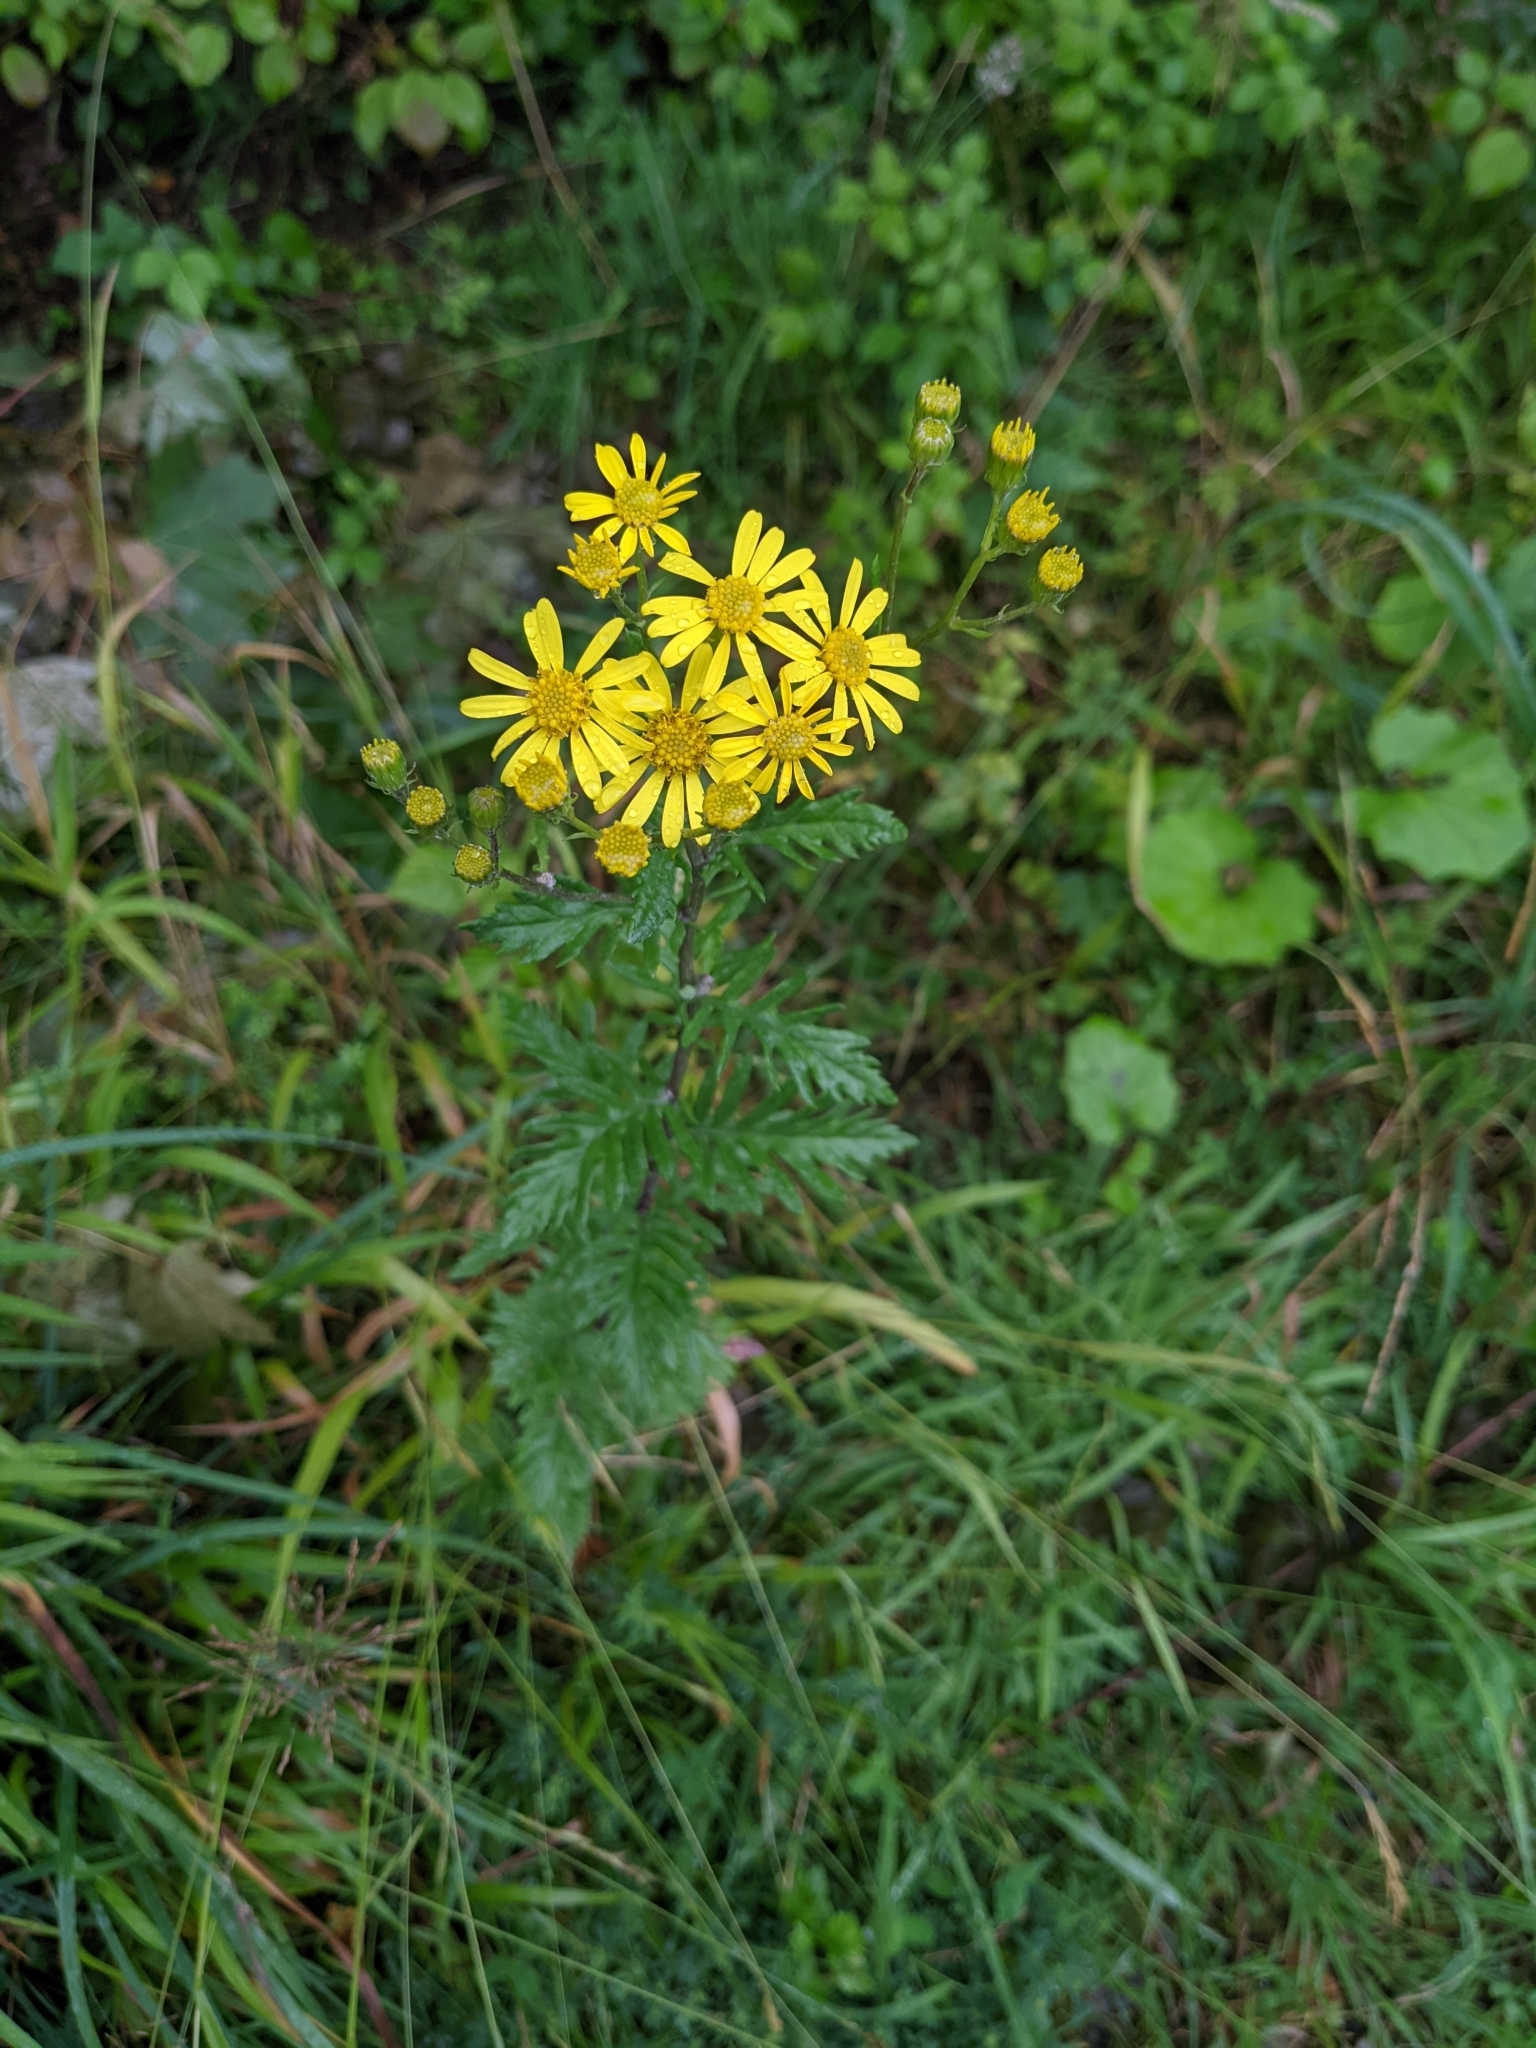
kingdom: Plantae
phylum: Tracheophyta
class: Magnoliopsida
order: Asterales
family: Asteraceae
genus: Jacobaea
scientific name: Jacobaea erucifolia
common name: Hoary ragwort
